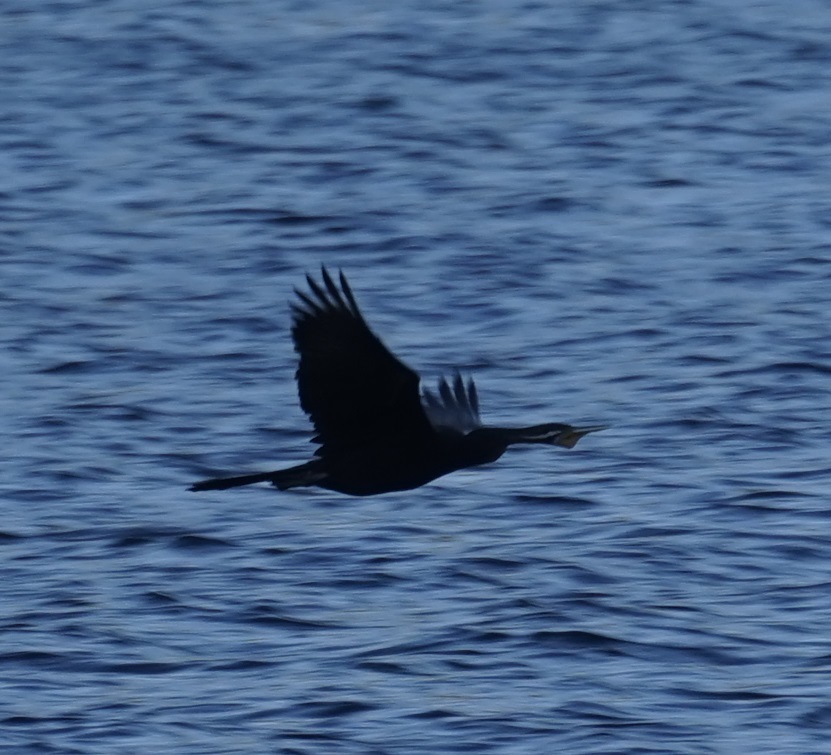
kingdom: Animalia
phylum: Chordata
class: Aves
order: Suliformes
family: Anhingidae
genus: Anhinga
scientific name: Anhinga novaehollandiae
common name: Australasian darter
